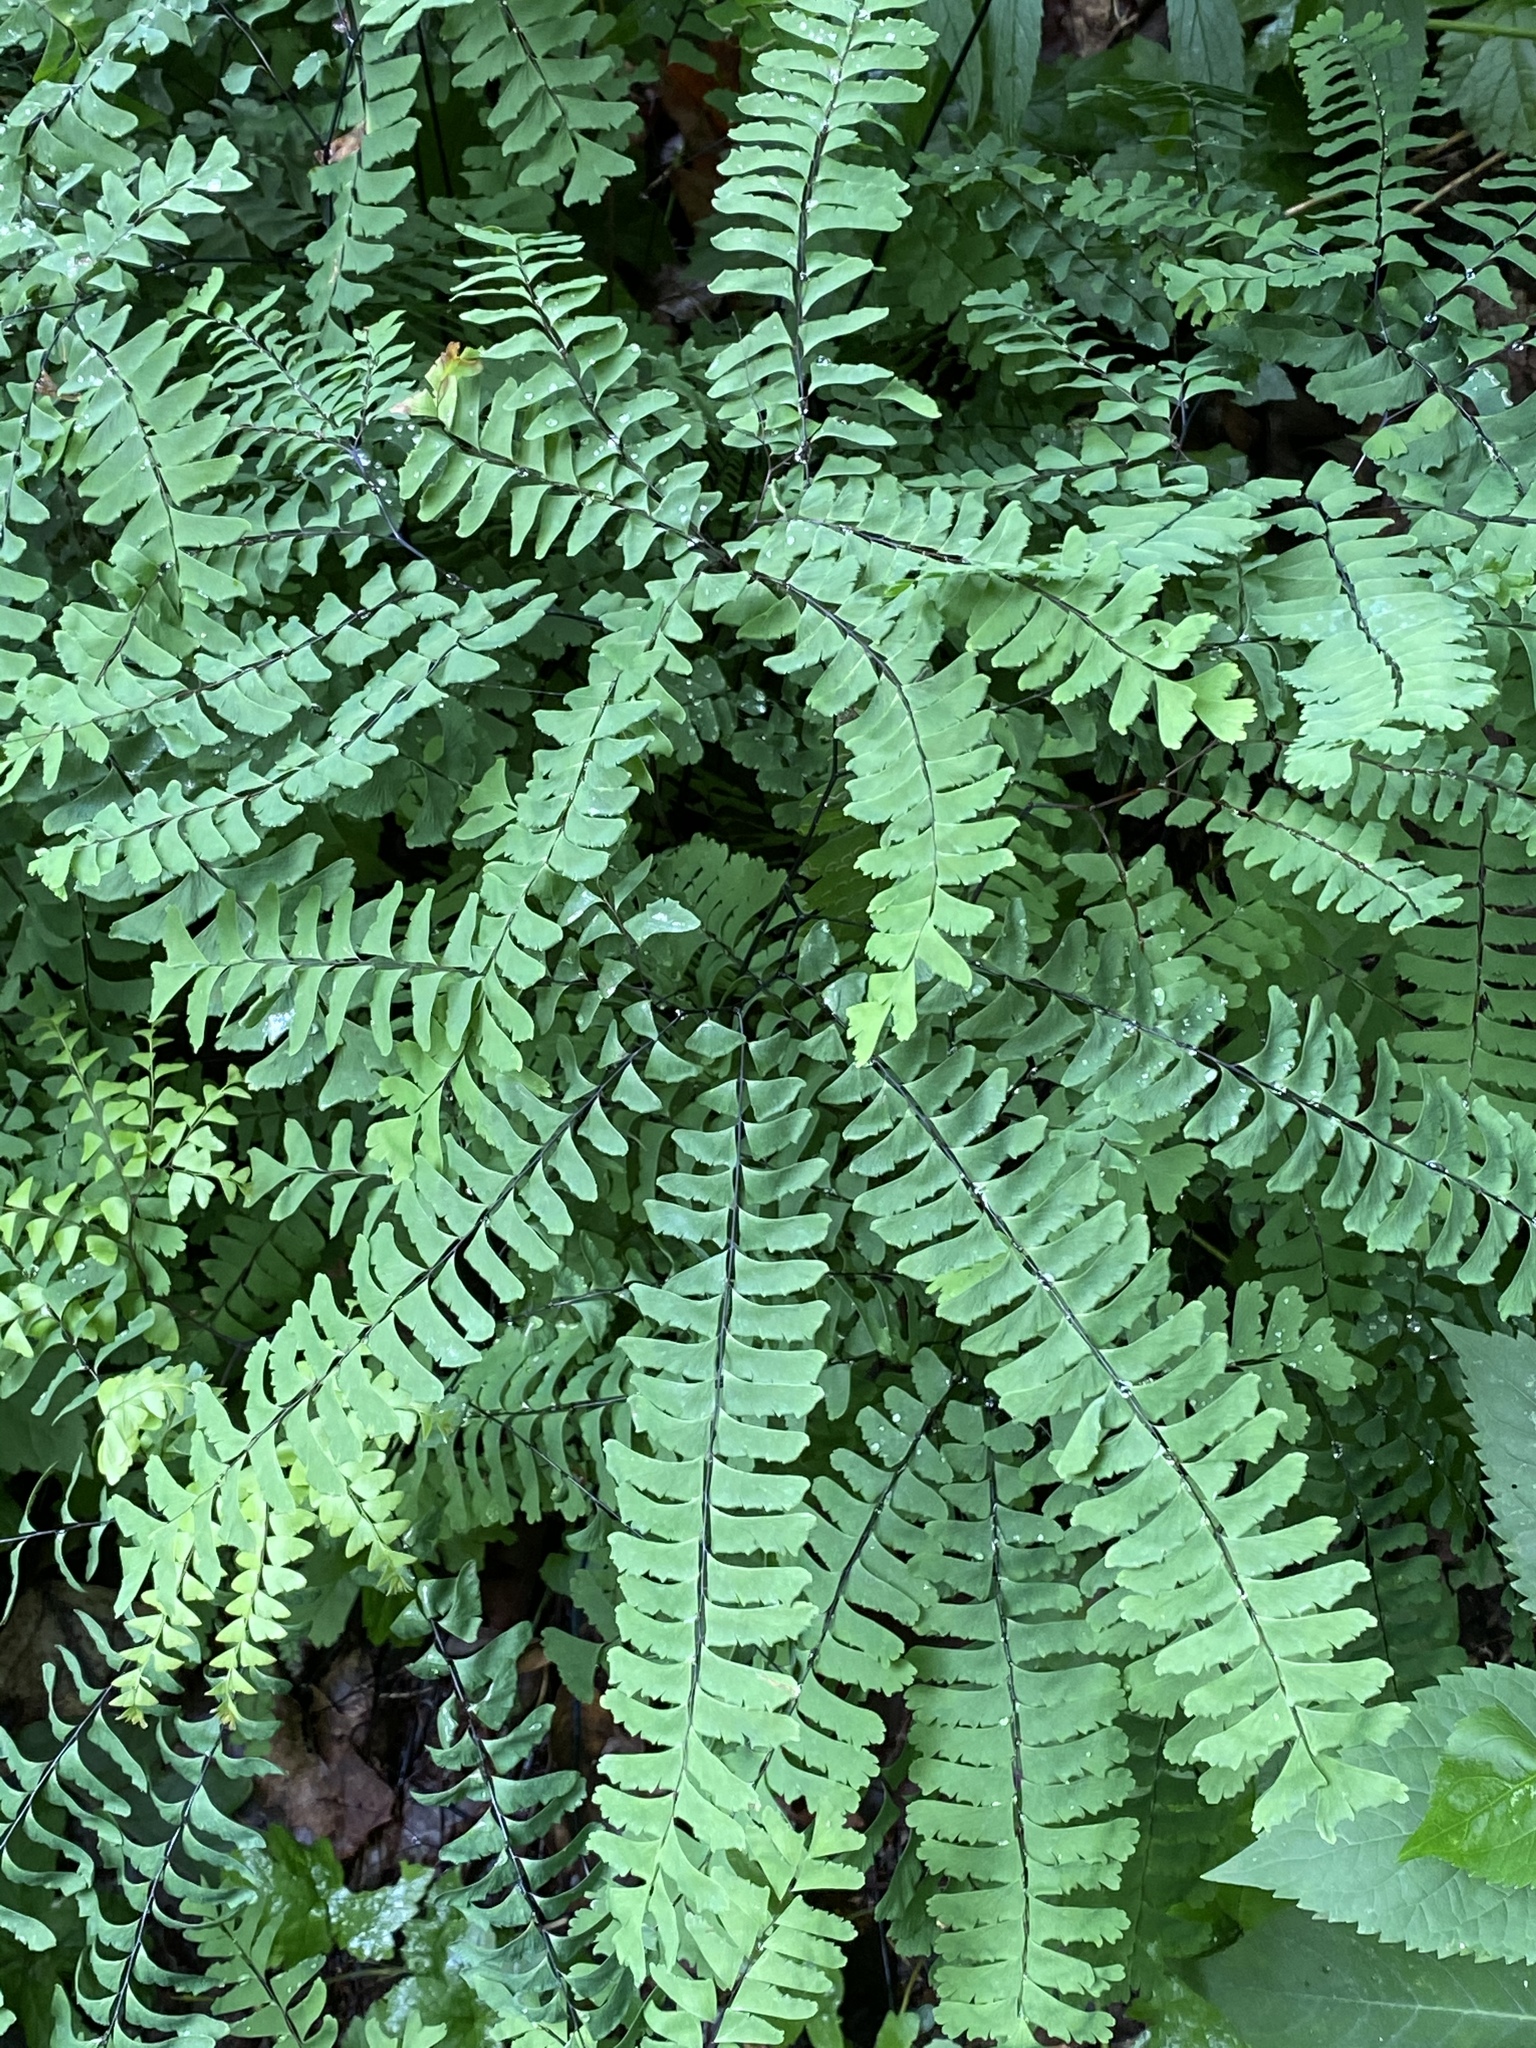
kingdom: Plantae
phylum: Tracheophyta
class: Polypodiopsida
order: Polypodiales
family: Pteridaceae
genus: Adiantum
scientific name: Adiantum pedatum
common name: Five-finger fern
